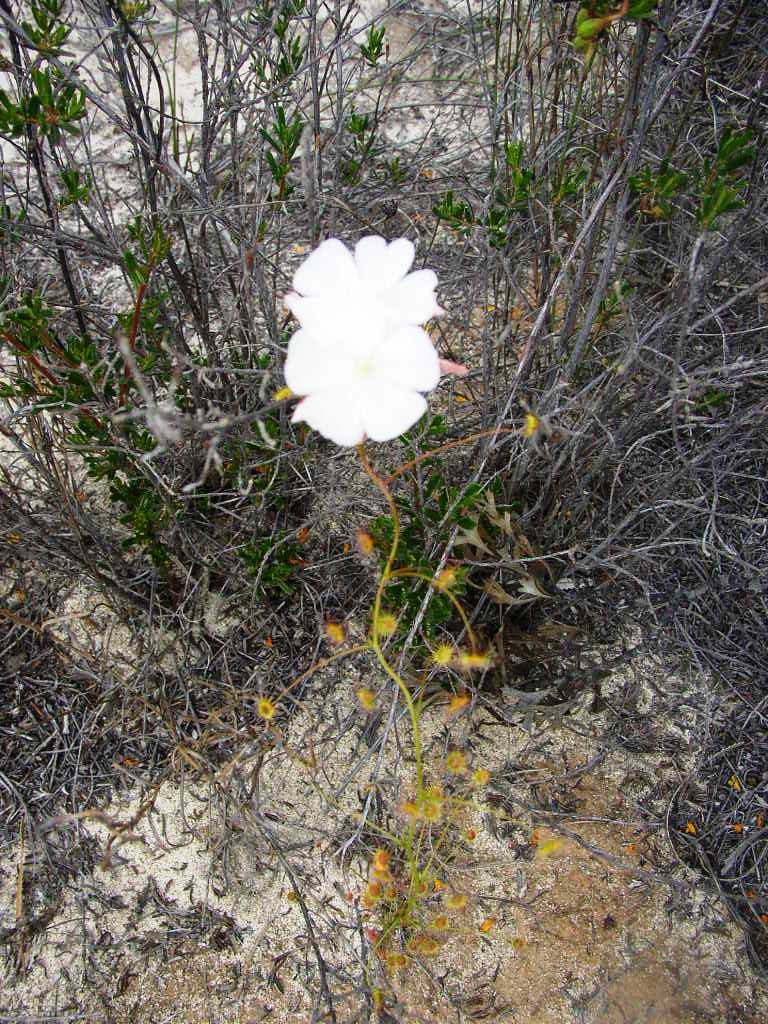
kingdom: Plantae
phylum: Tracheophyta
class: Magnoliopsida
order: Caryophyllales
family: Droseraceae
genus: Drosera
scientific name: Drosera
